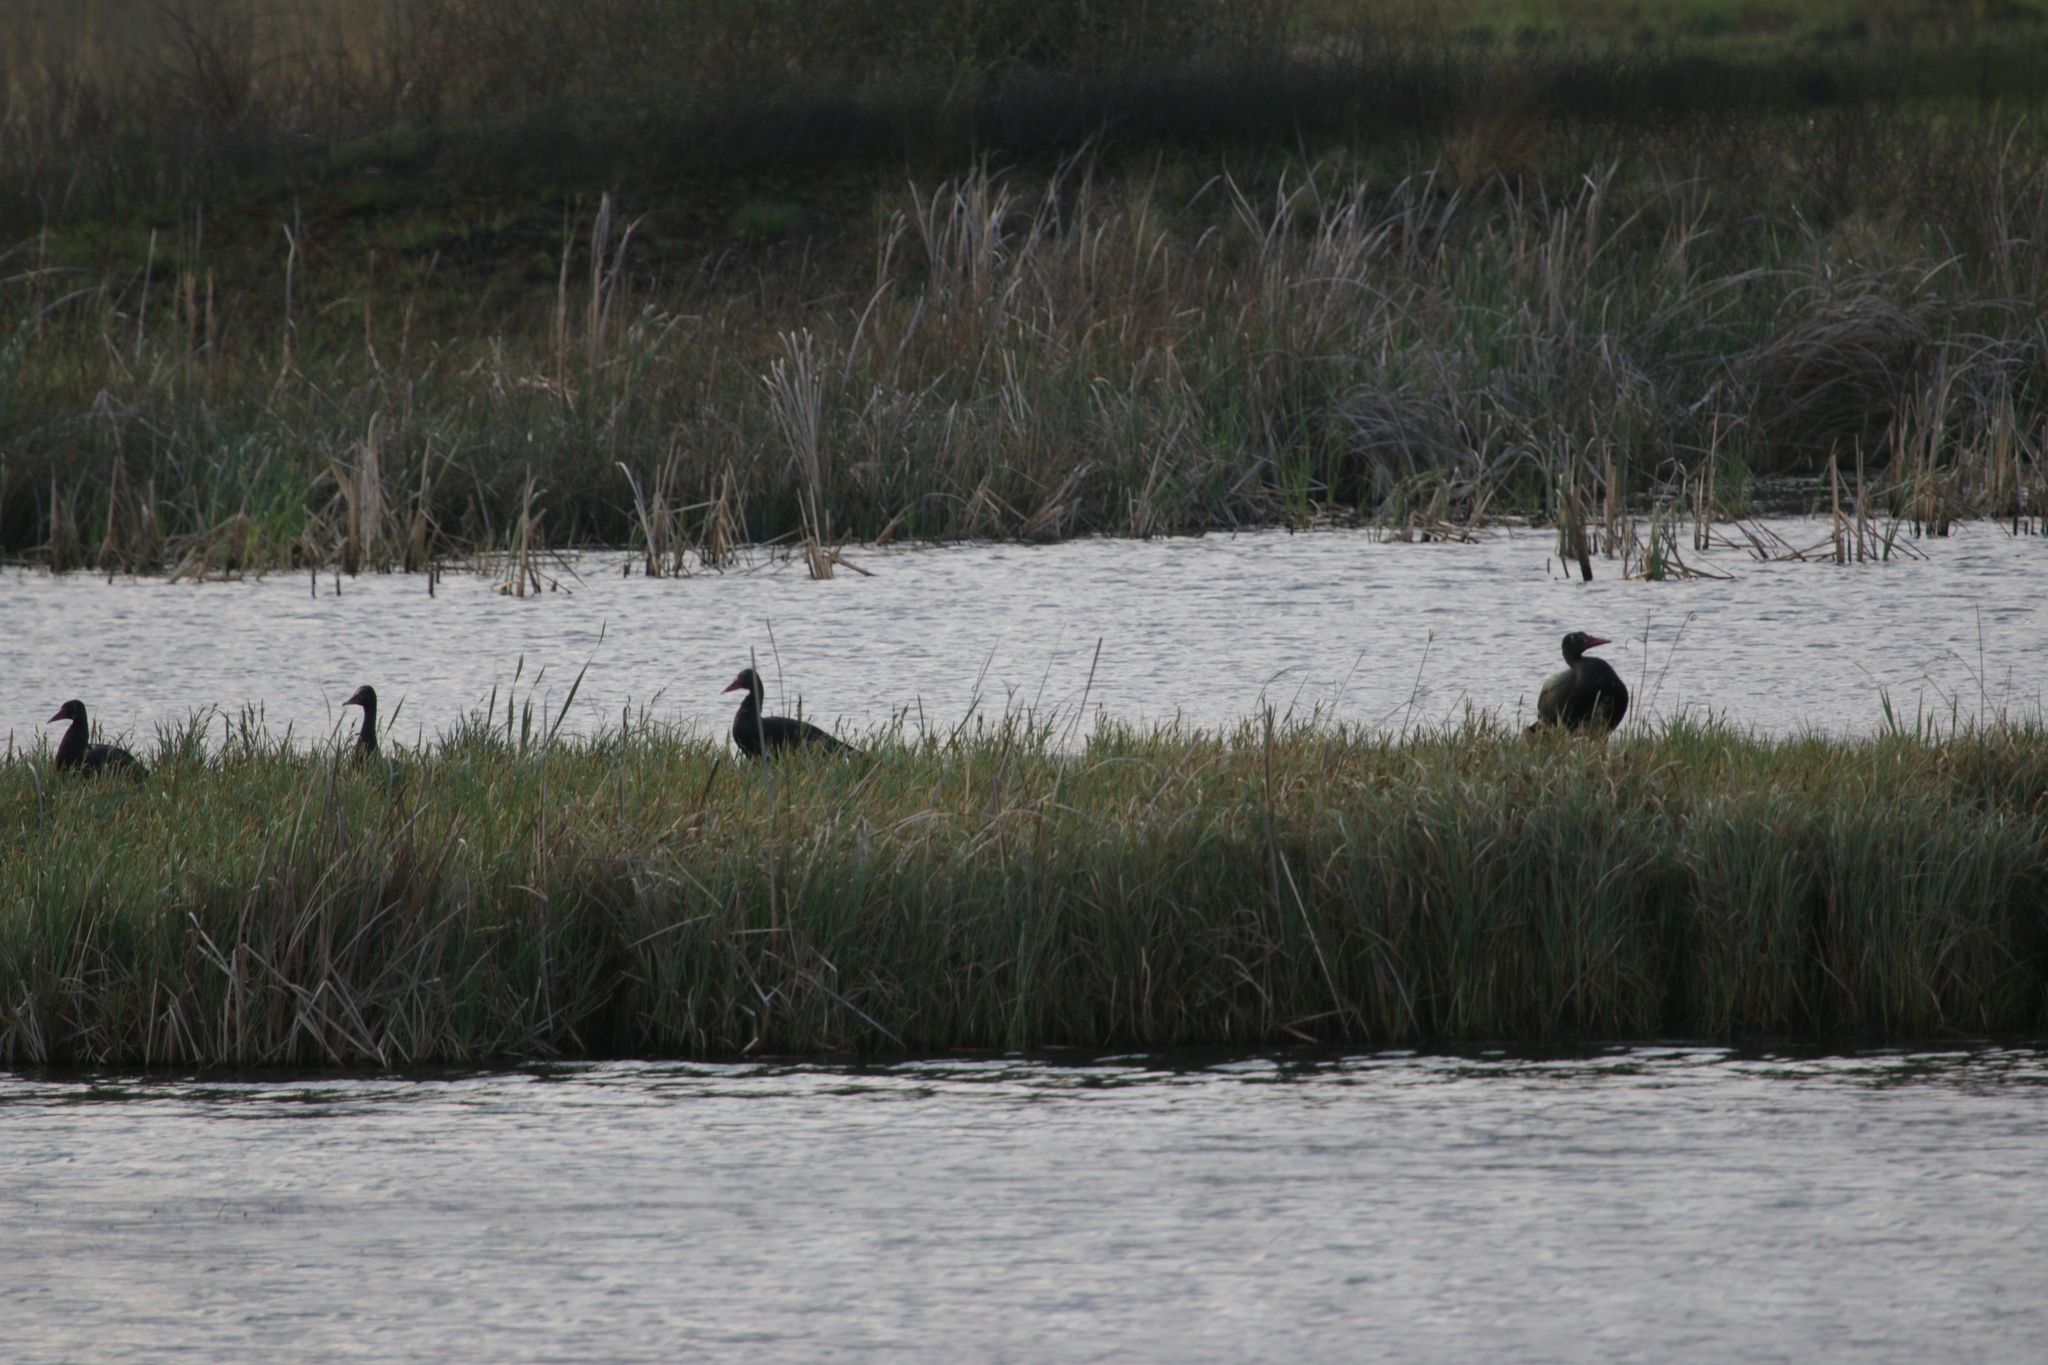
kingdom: Animalia
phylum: Chordata
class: Aves
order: Anseriformes
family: Anatidae
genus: Plectropterus
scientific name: Plectropterus gambensis
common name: Spur-winged goose
